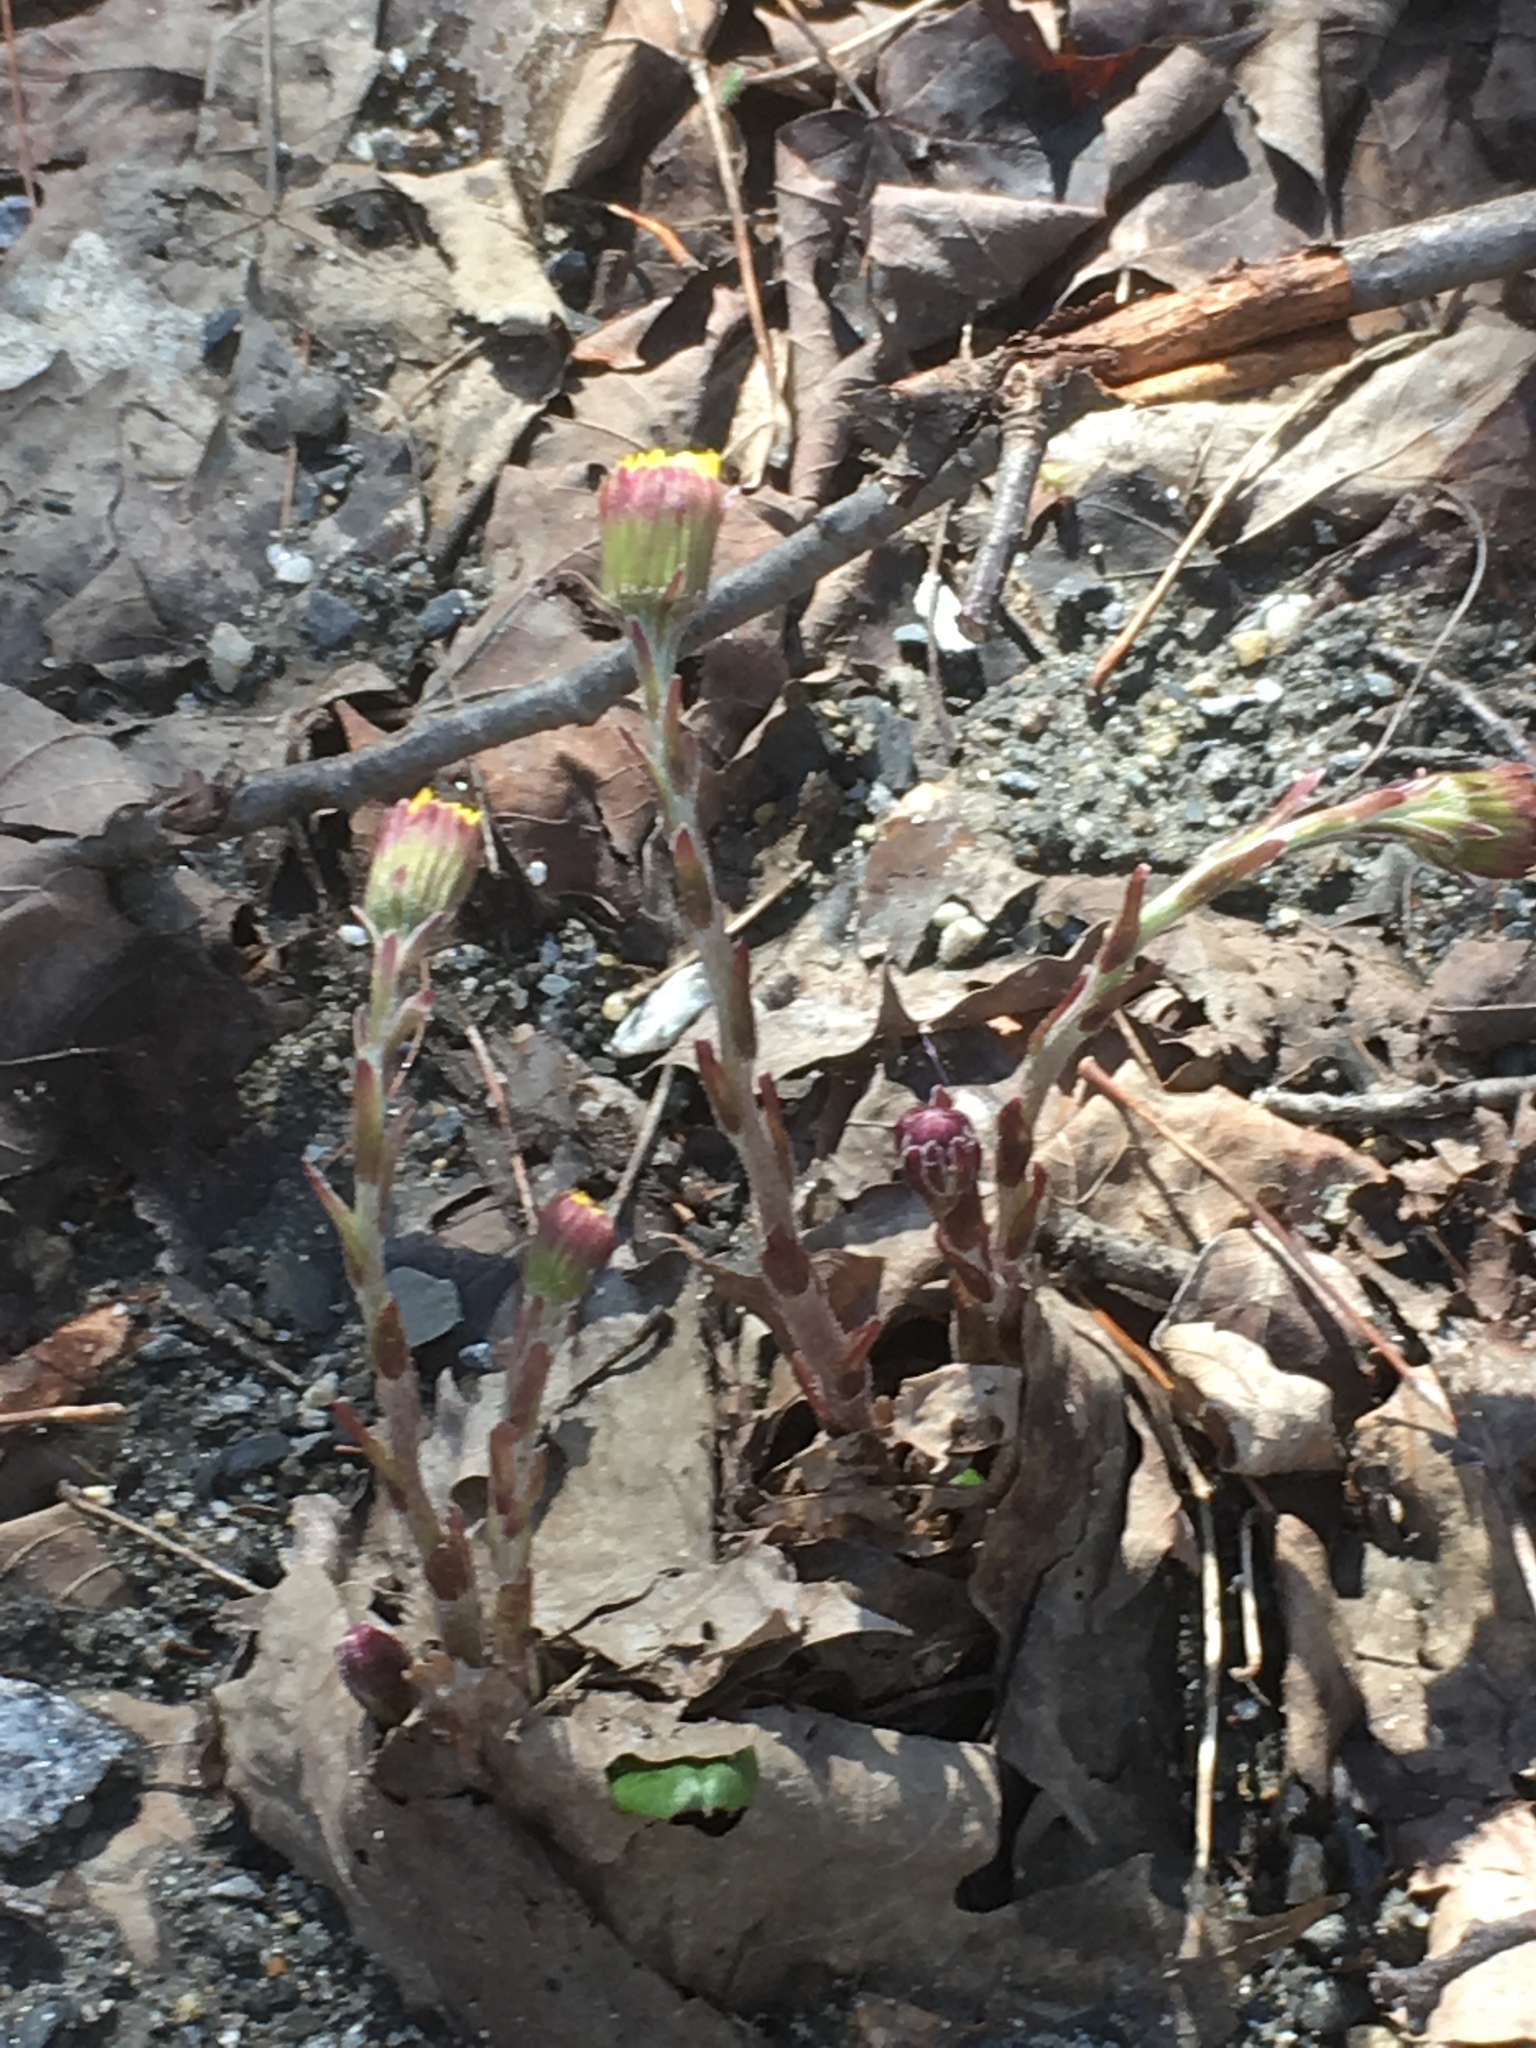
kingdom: Plantae
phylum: Tracheophyta
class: Magnoliopsida
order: Asterales
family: Asteraceae
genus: Tussilago
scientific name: Tussilago farfara
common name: Coltsfoot
